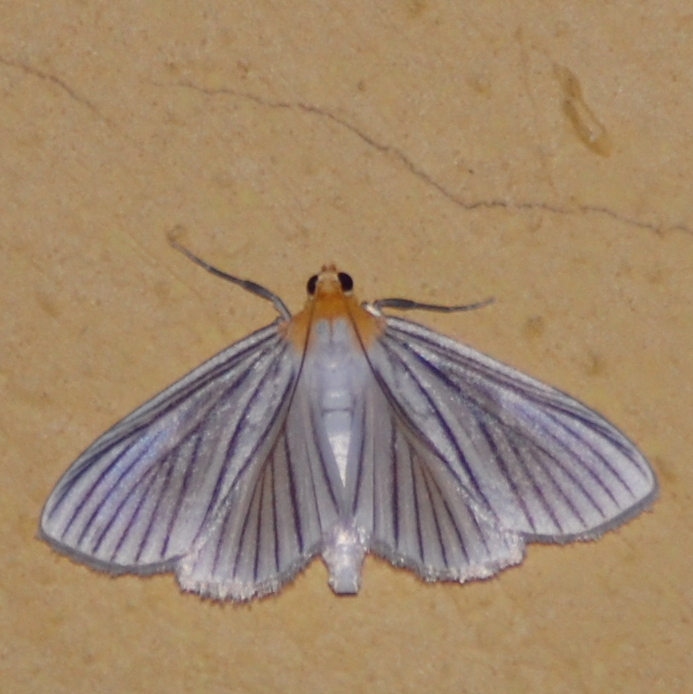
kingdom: Animalia
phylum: Arthropoda
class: Insecta
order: Lepidoptera
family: Crambidae
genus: Syllepte
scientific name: Syllepte striginervalis
